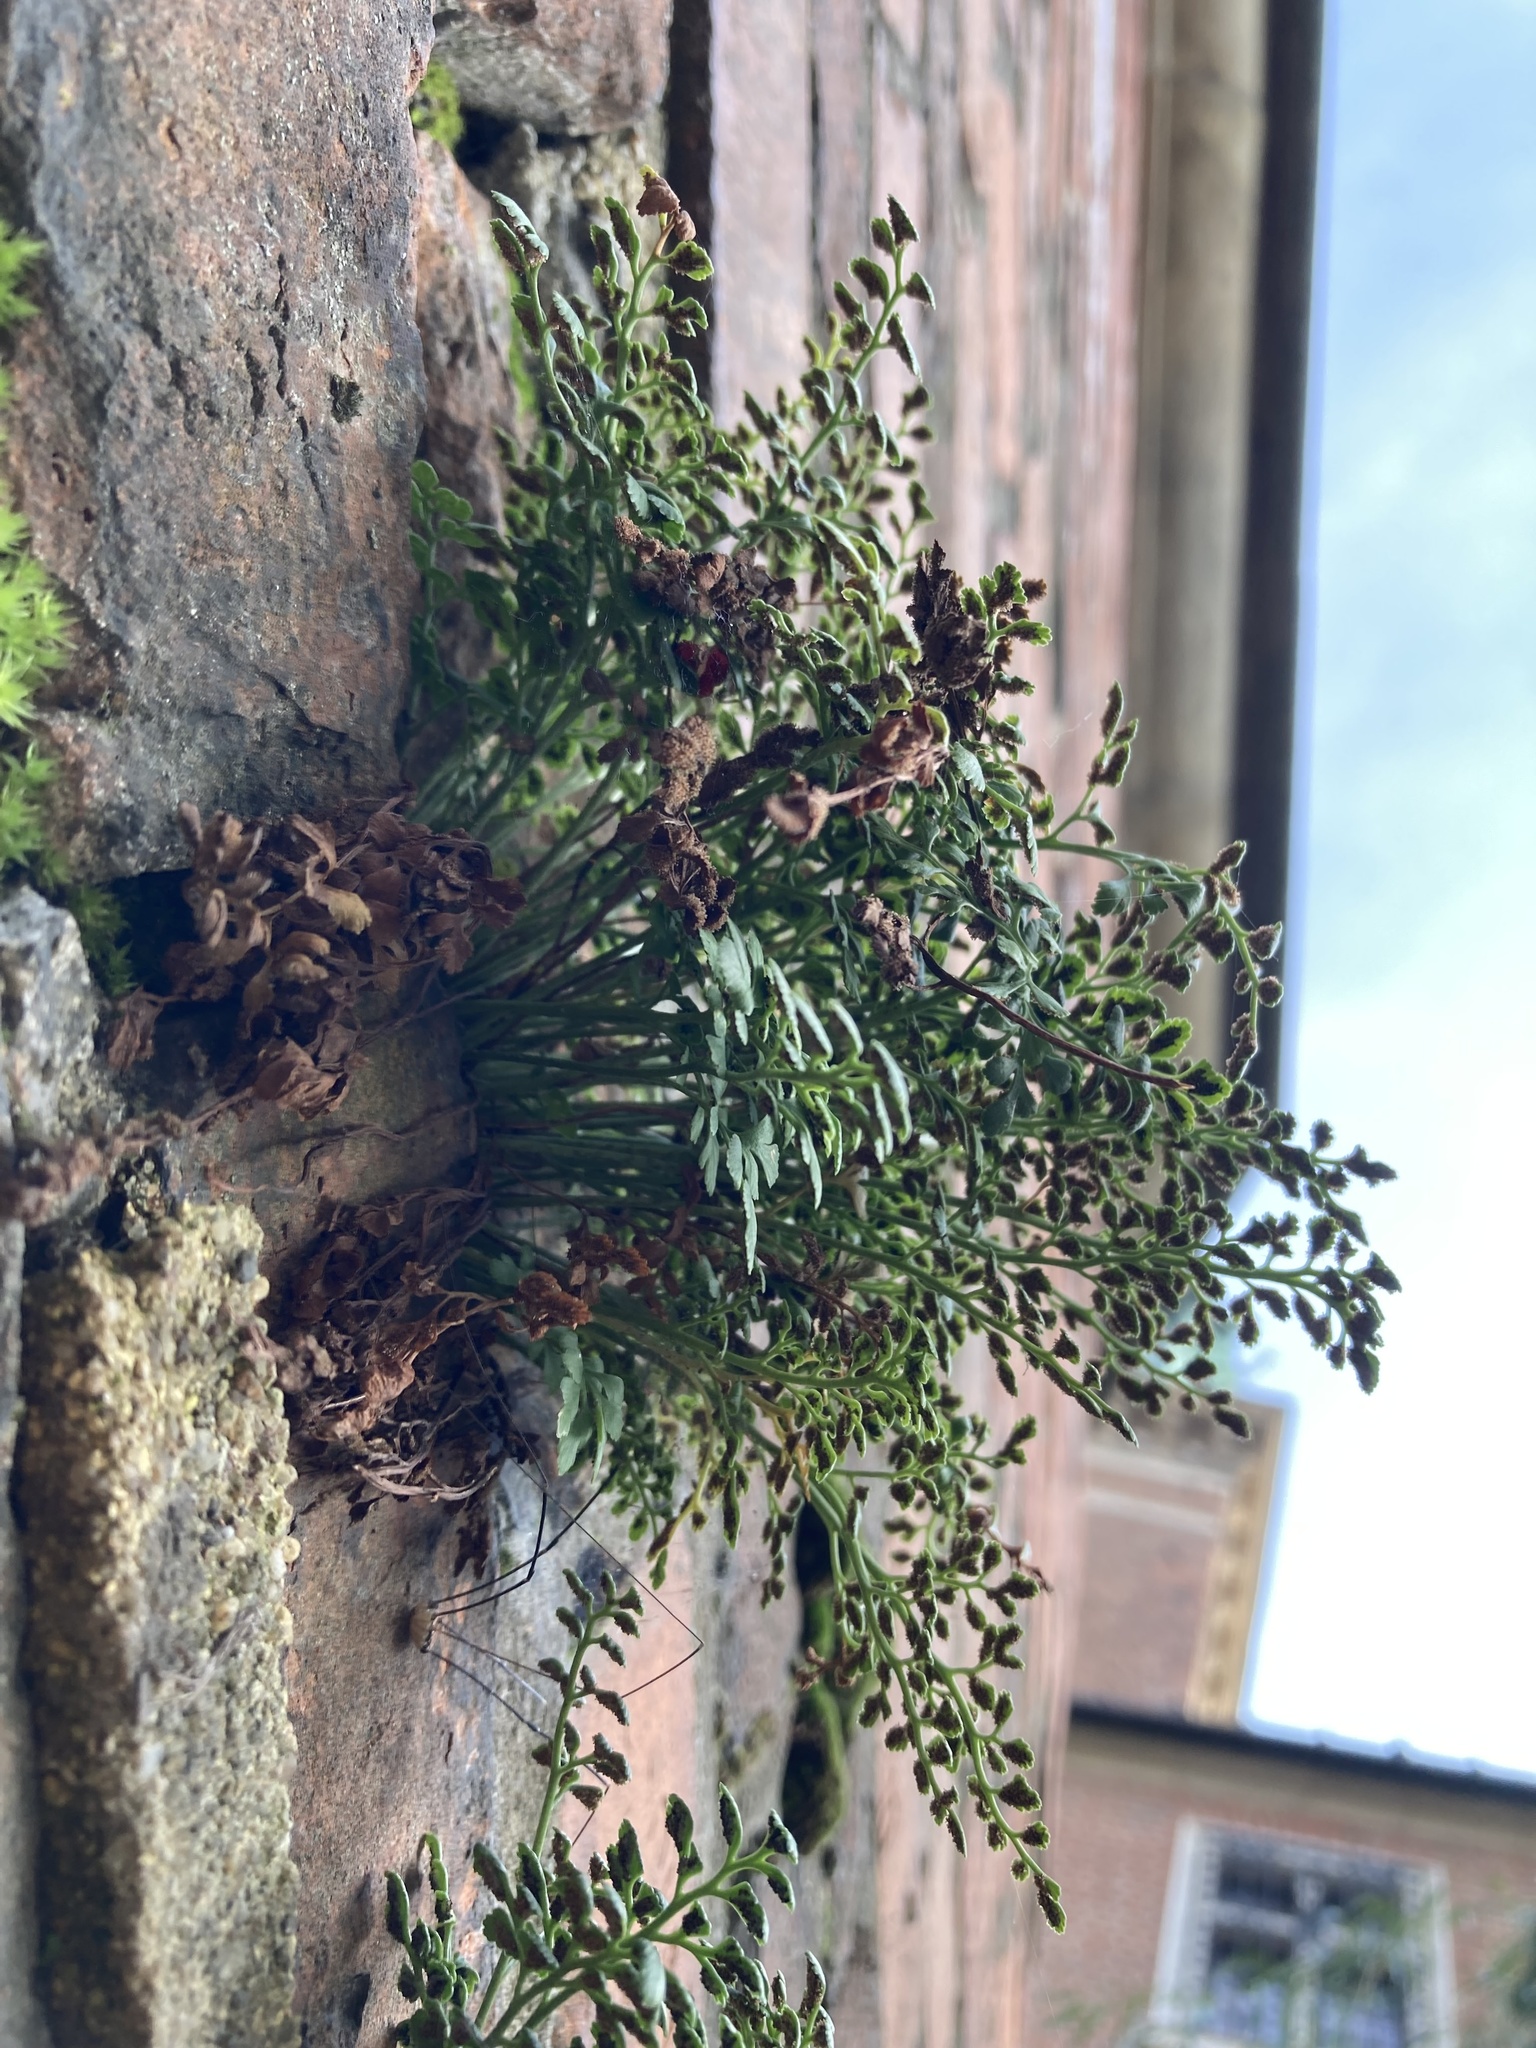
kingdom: Plantae
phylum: Tracheophyta
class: Polypodiopsida
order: Polypodiales
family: Aspleniaceae
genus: Asplenium
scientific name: Asplenium ruta-muraria
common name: Wall-rue
